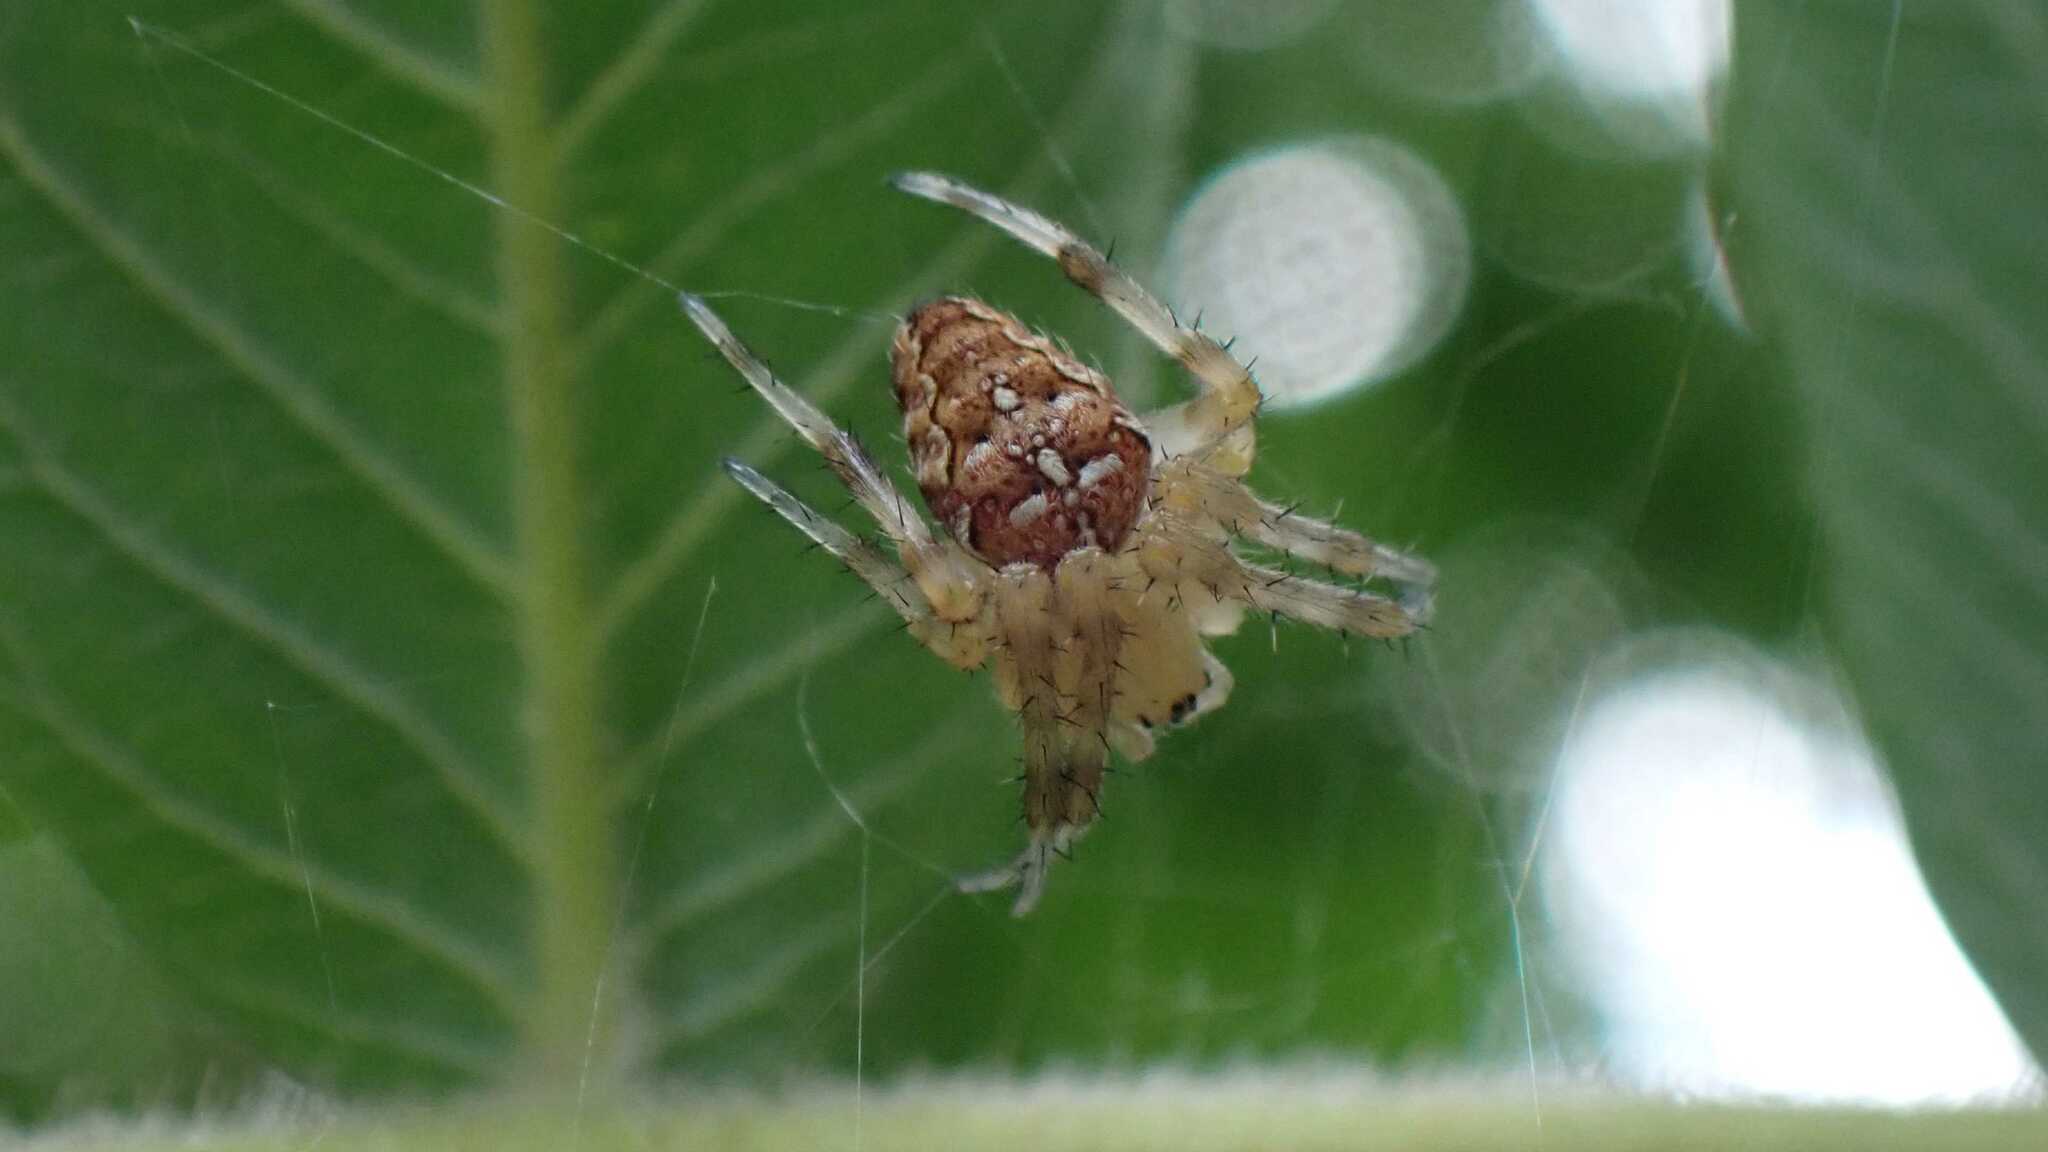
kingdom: Animalia
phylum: Arthropoda
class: Arachnida
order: Araneae
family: Araneidae
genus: Araneus
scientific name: Araneus diadematus
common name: Cross orbweaver
